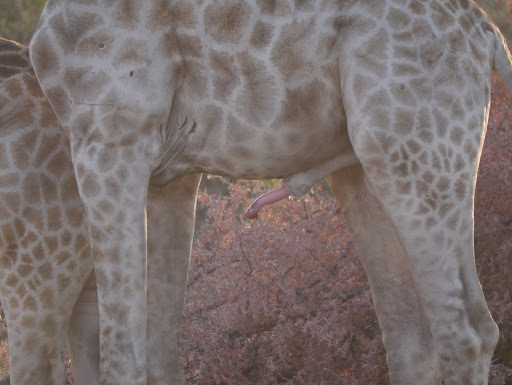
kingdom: Animalia
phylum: Chordata
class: Mammalia
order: Artiodactyla
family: Giraffidae
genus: Giraffa
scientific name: Giraffa giraffa
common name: Southern giraffe
